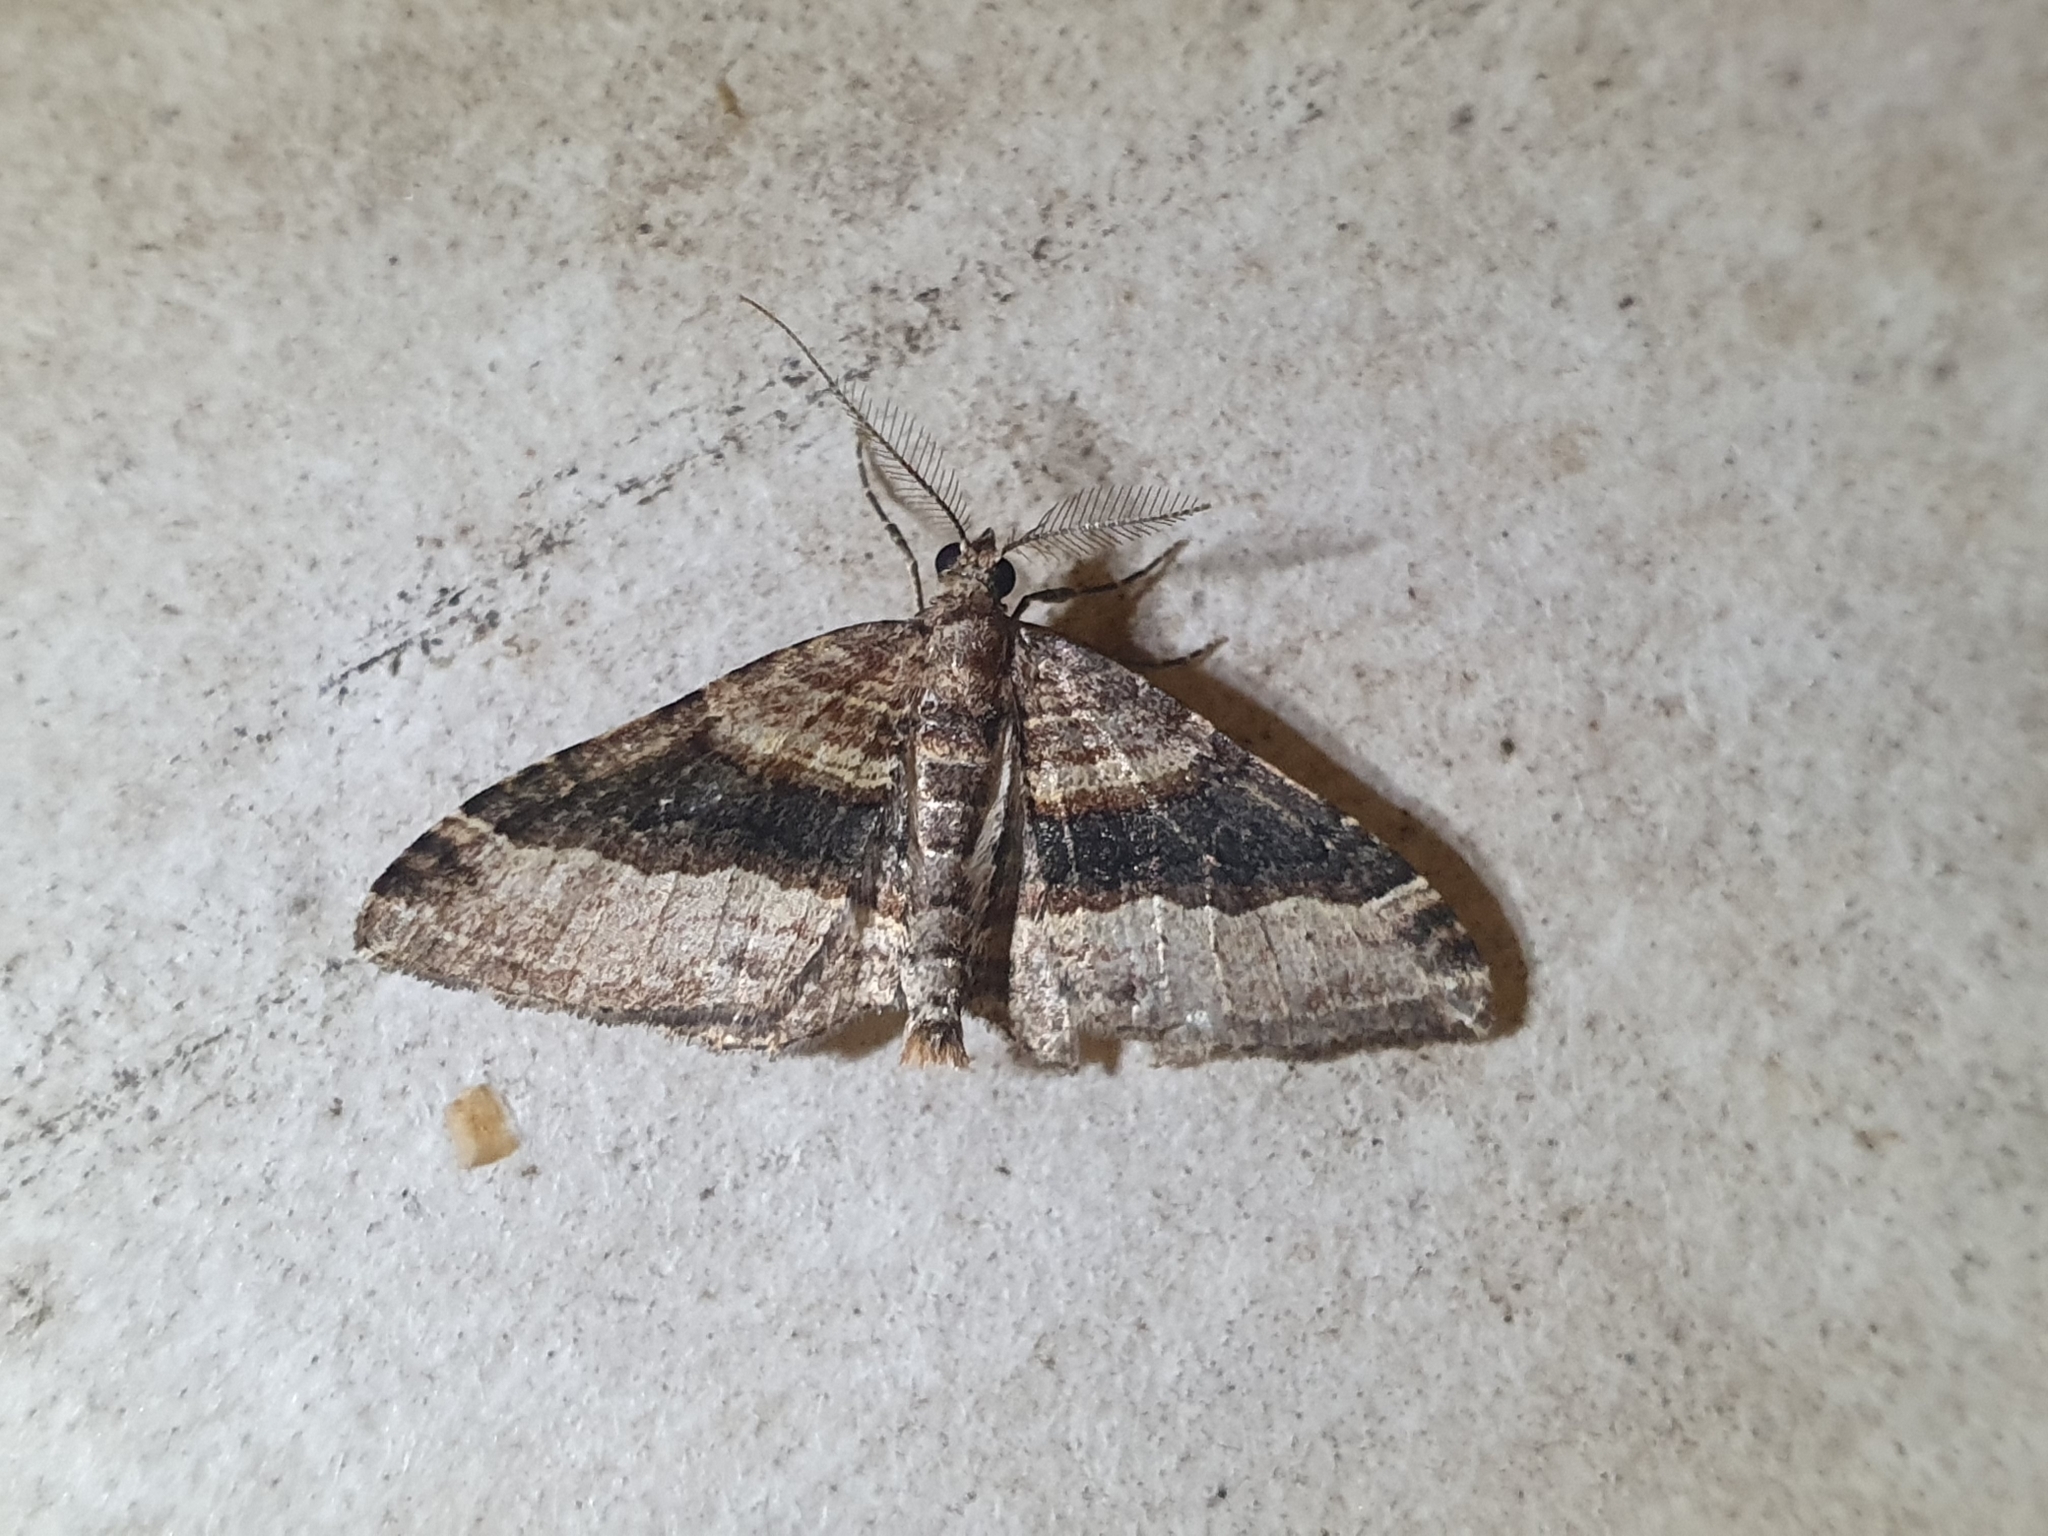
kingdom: Animalia
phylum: Arthropoda
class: Insecta
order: Lepidoptera
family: Geometridae
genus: Epyaxa
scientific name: Epyaxa lucidata
